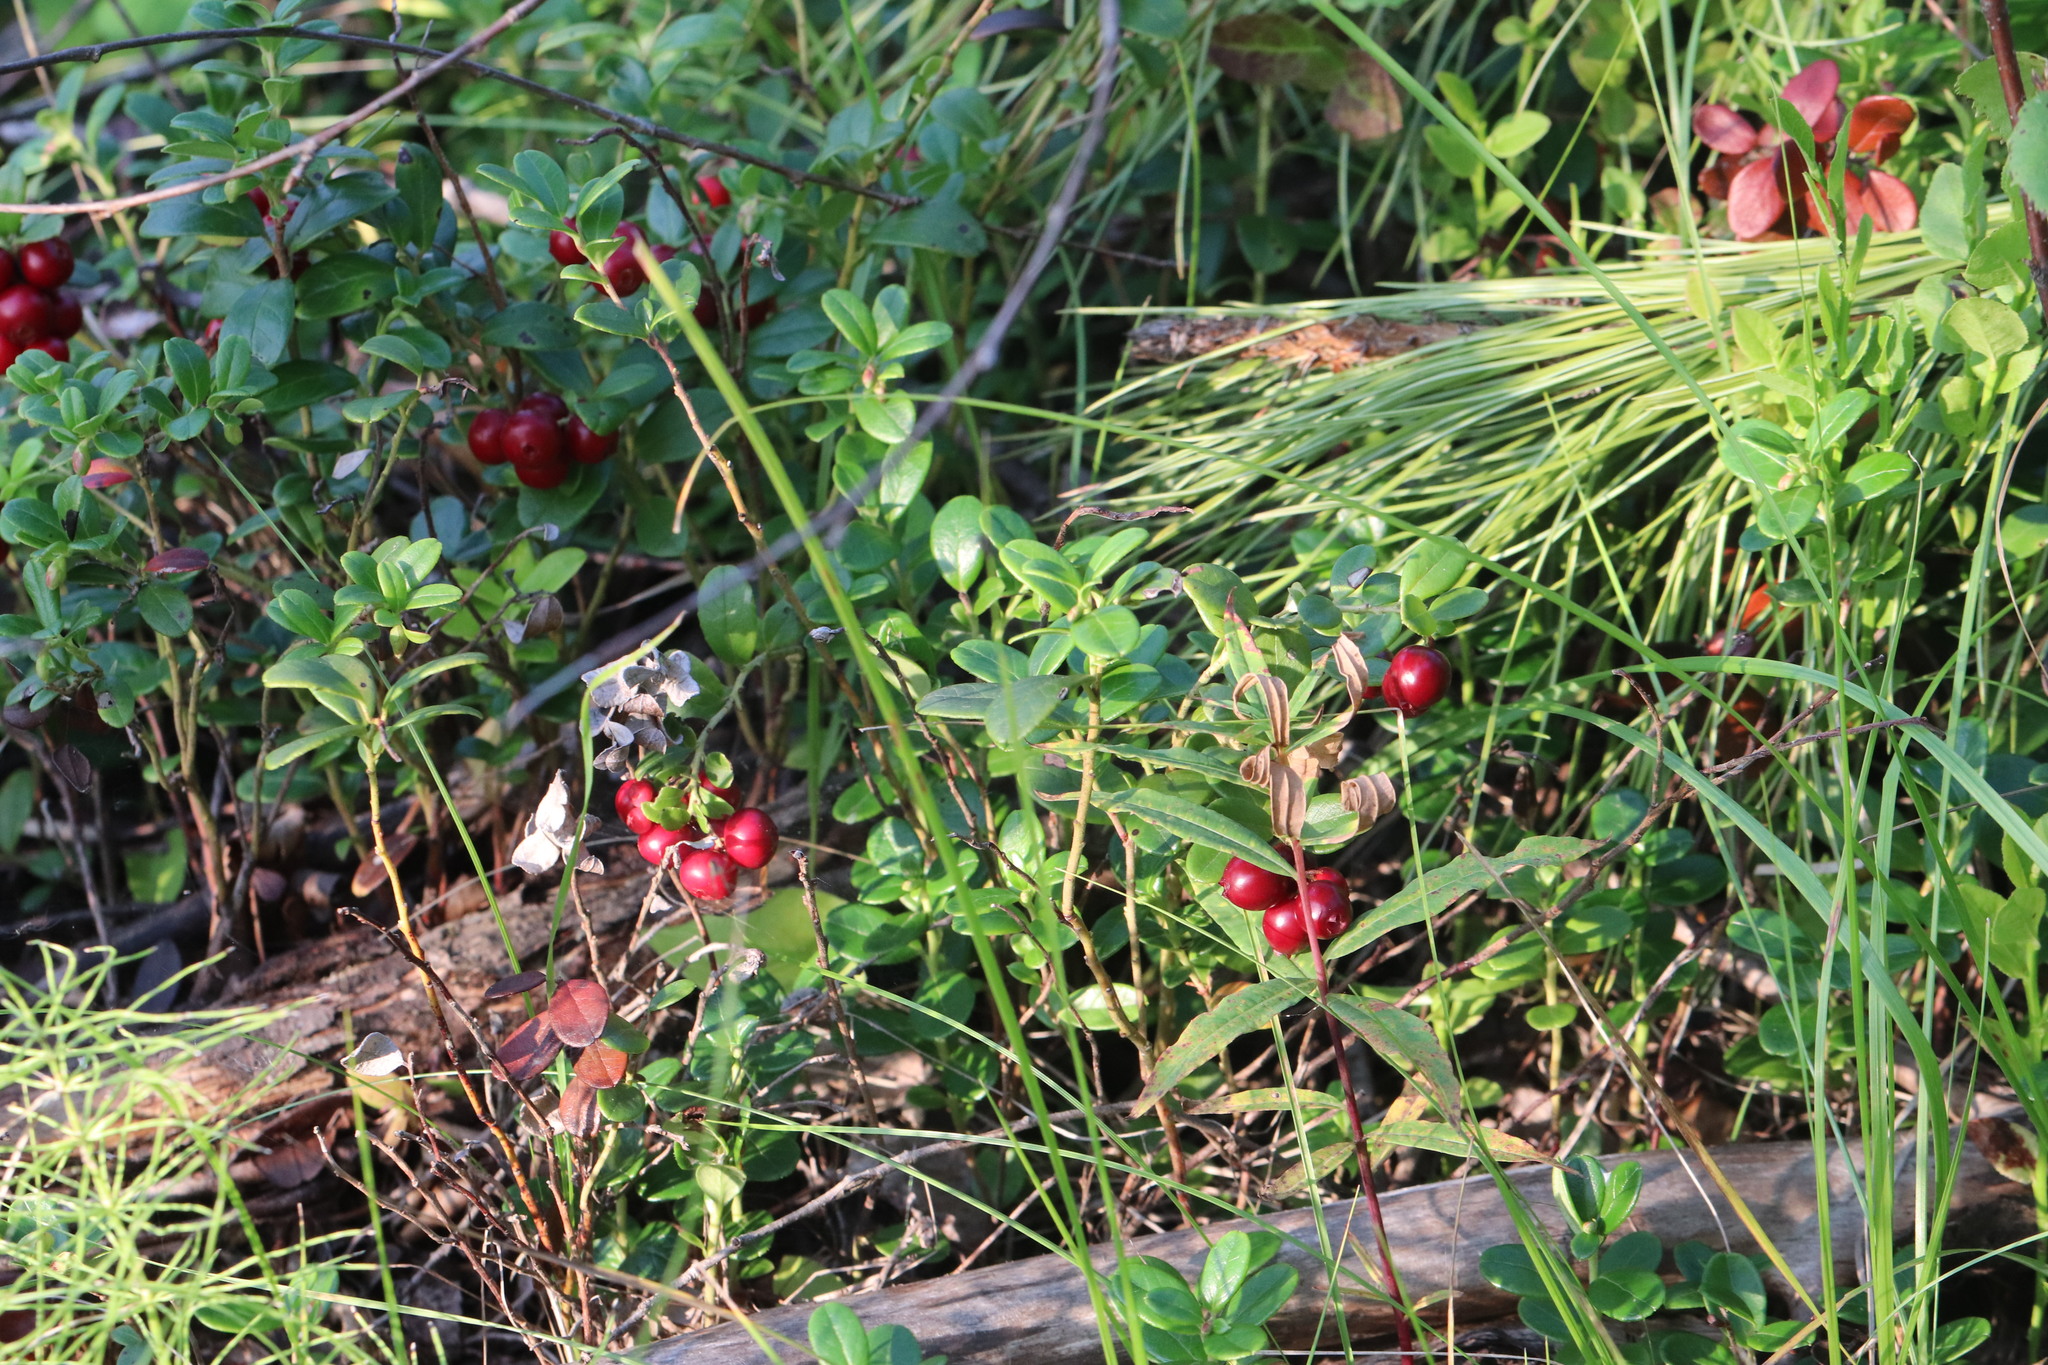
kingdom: Plantae
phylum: Tracheophyta
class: Magnoliopsida
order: Ericales
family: Ericaceae
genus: Vaccinium
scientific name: Vaccinium vitis-idaea
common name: Cowberry
